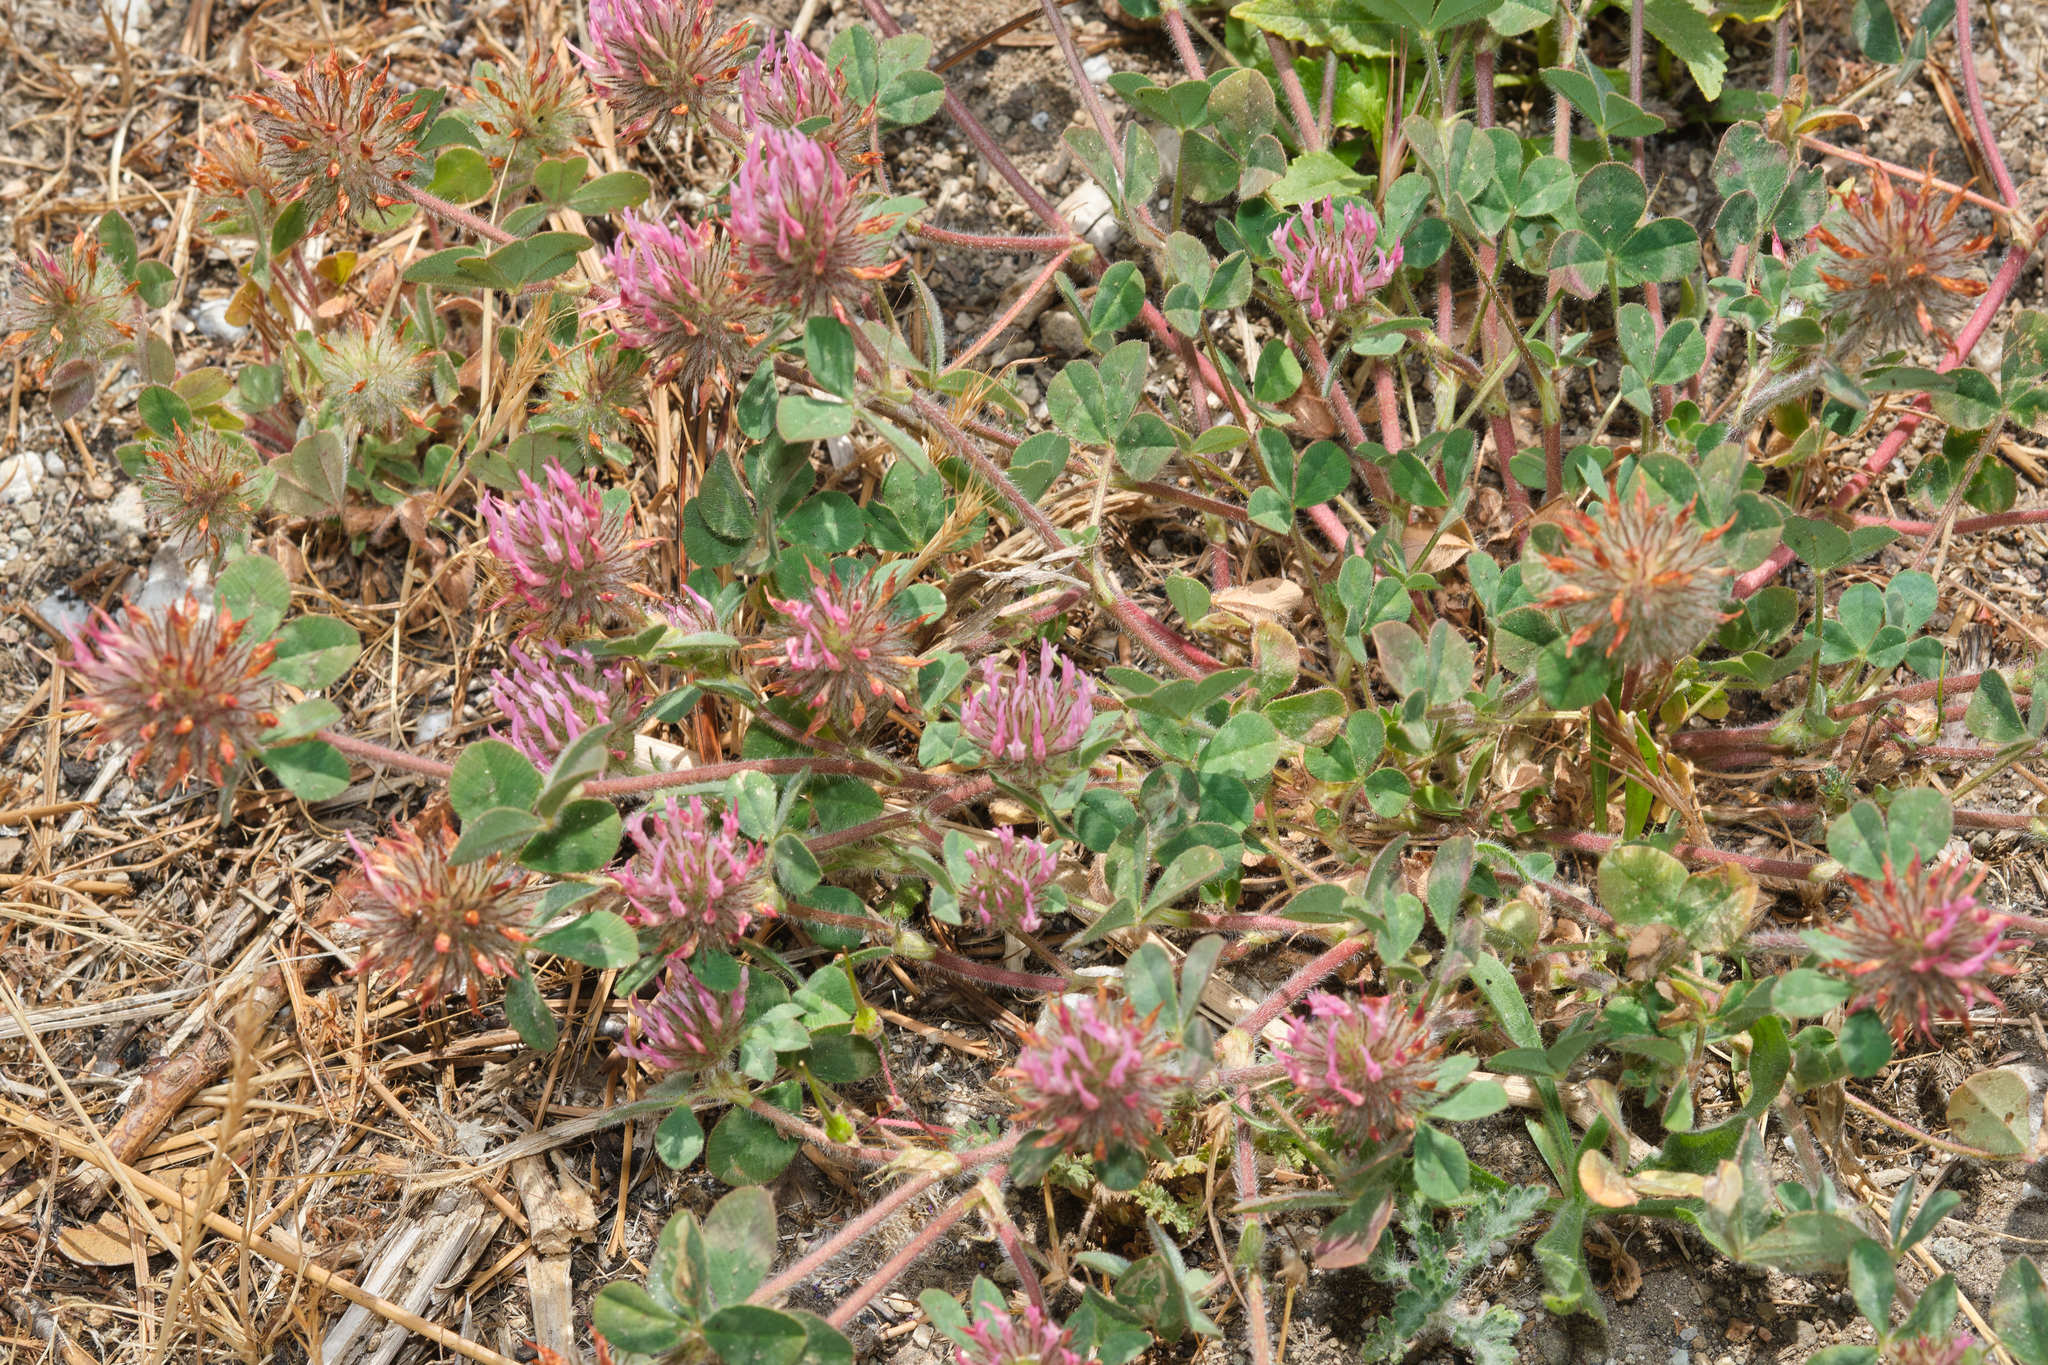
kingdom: Plantae
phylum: Tracheophyta
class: Magnoliopsida
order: Fabales
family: Fabaceae
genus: Trifolium
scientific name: Trifolium hirtum
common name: Rose clover
